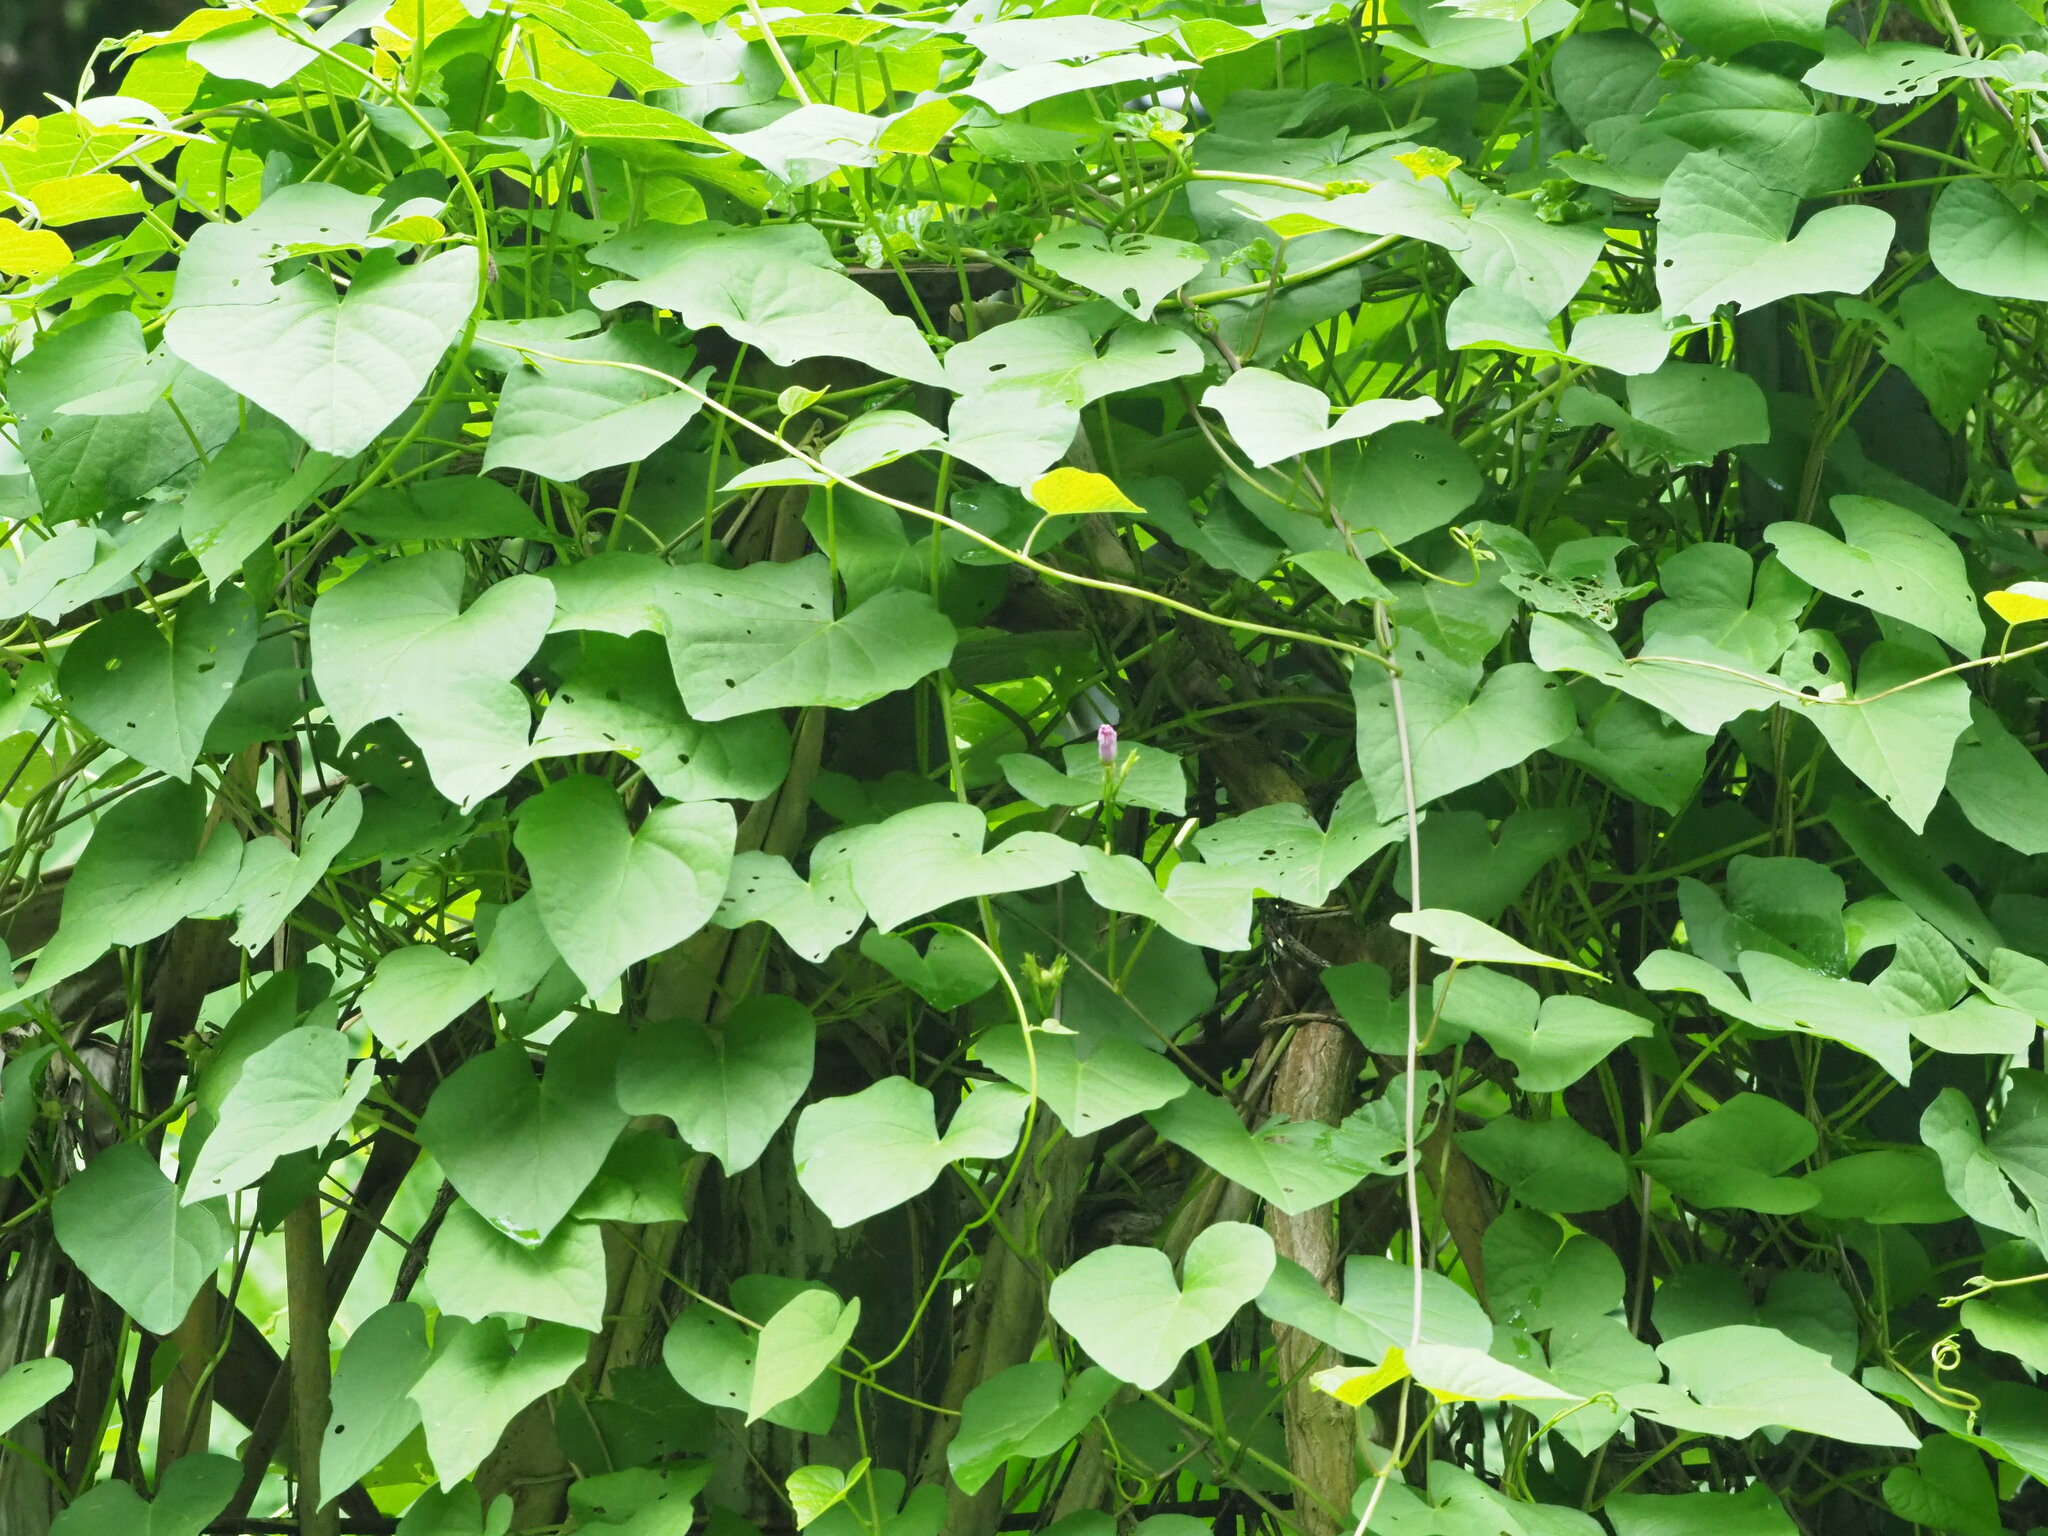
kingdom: Plantae
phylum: Tracheophyta
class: Magnoliopsida
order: Solanales
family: Convolvulaceae
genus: Ipomoea
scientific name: Ipomoea triloba
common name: Little-bell
